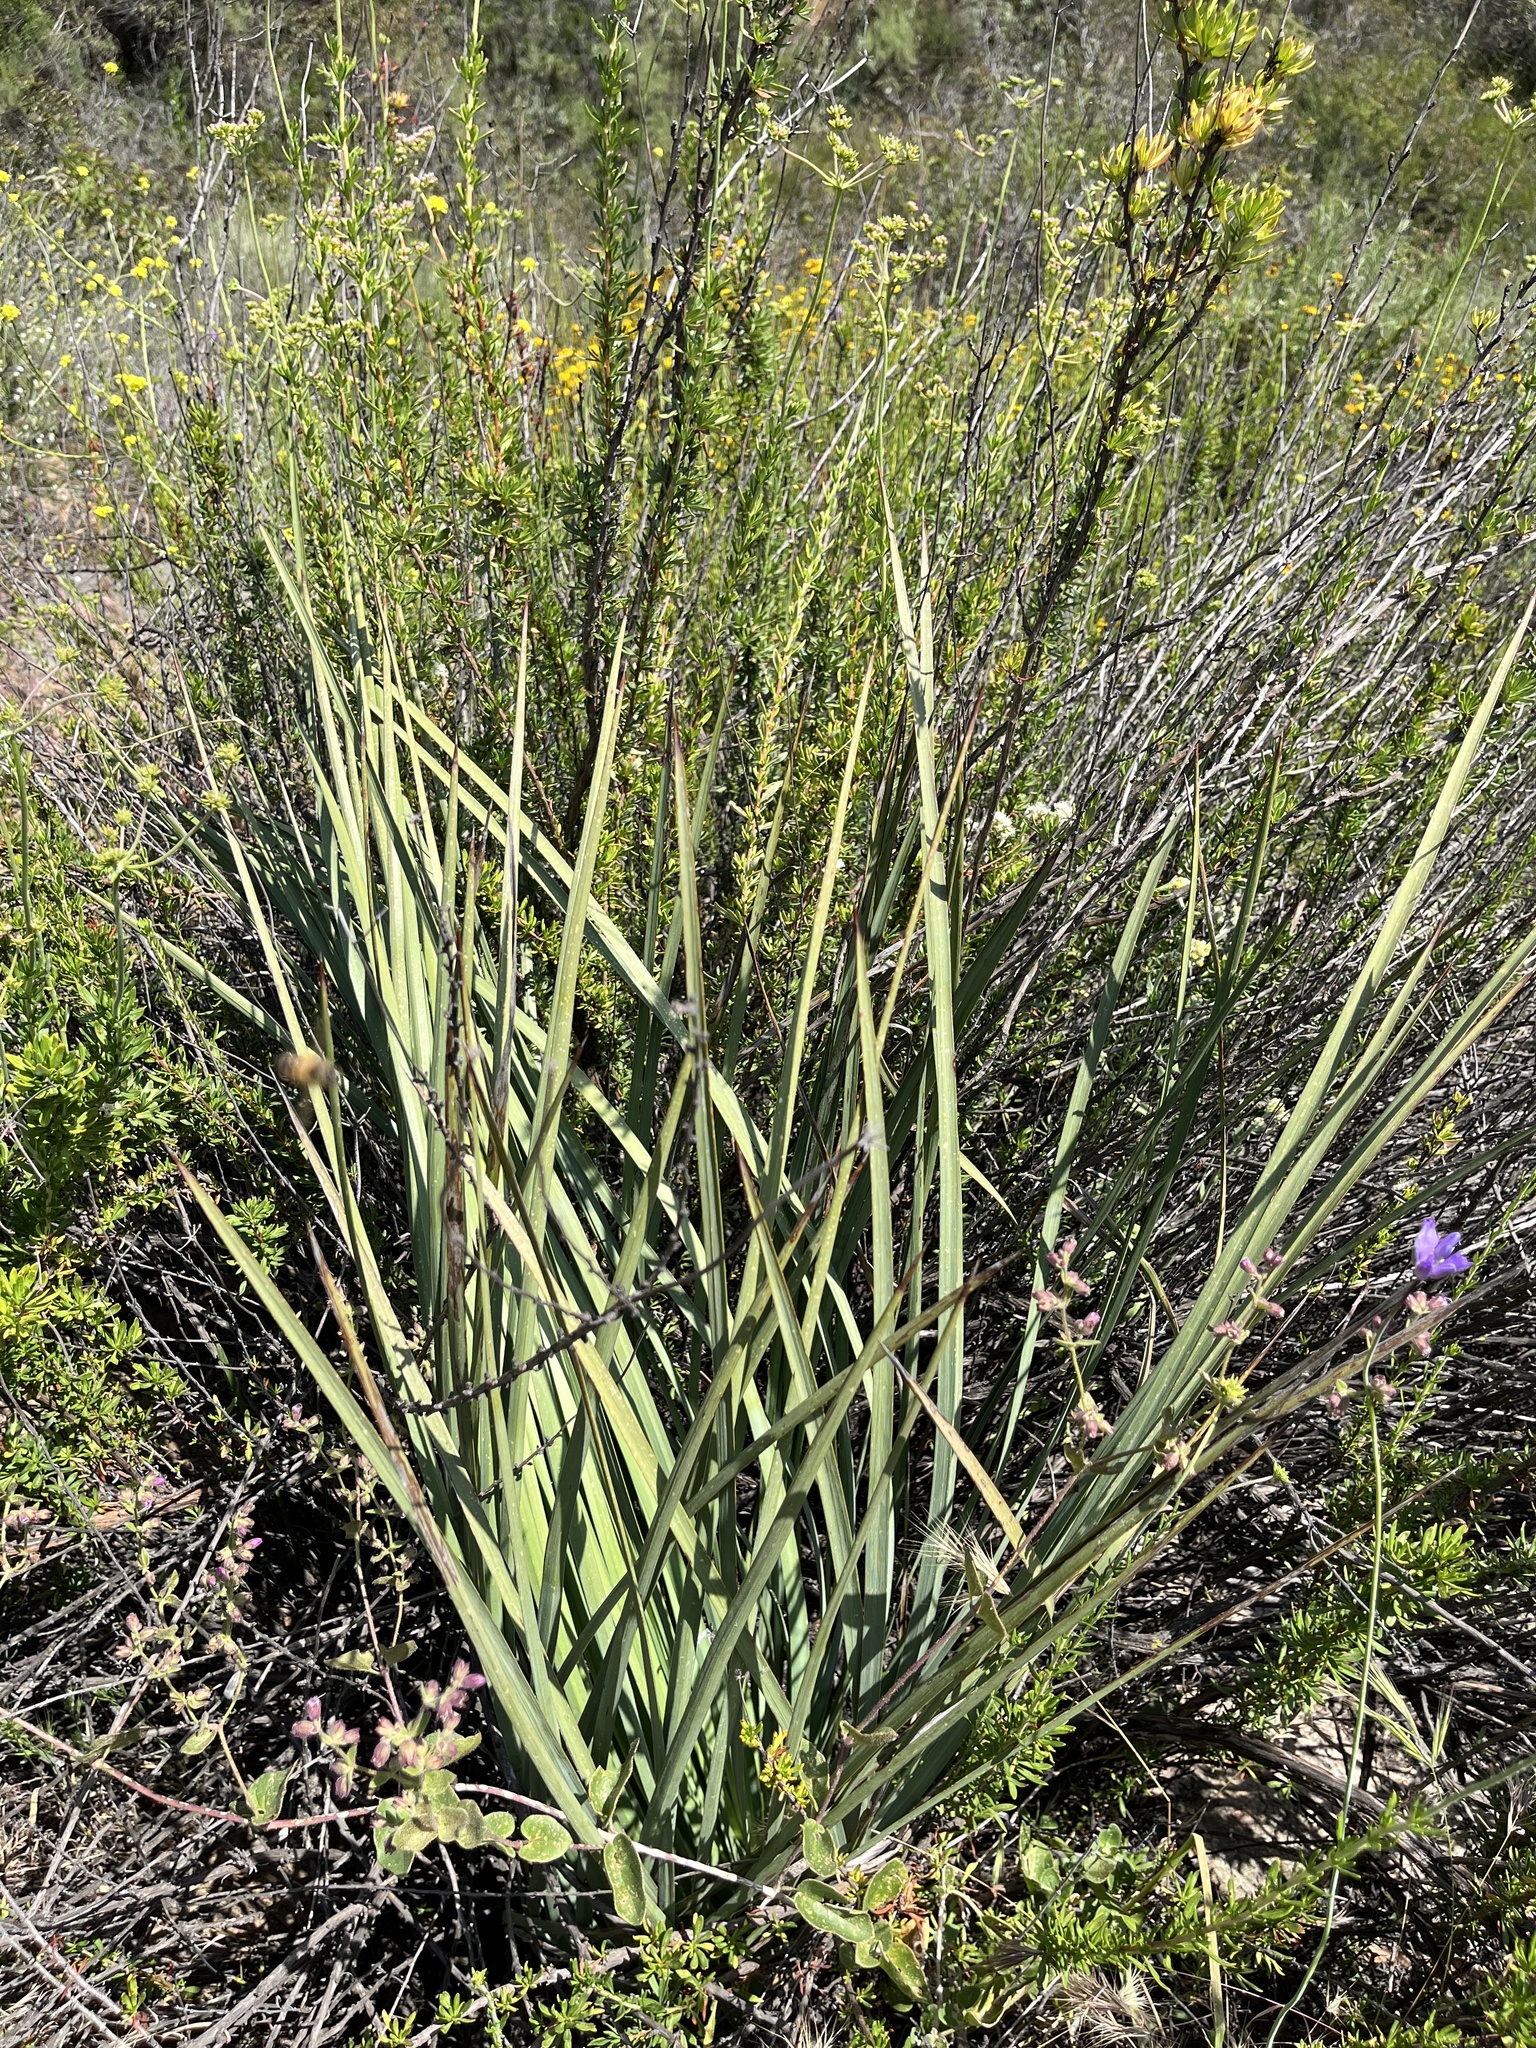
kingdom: Plantae
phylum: Tracheophyta
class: Liliopsida
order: Asparagales
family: Asparagaceae
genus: Hesperoyucca
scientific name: Hesperoyucca whipplei
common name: Our lord's-candle
